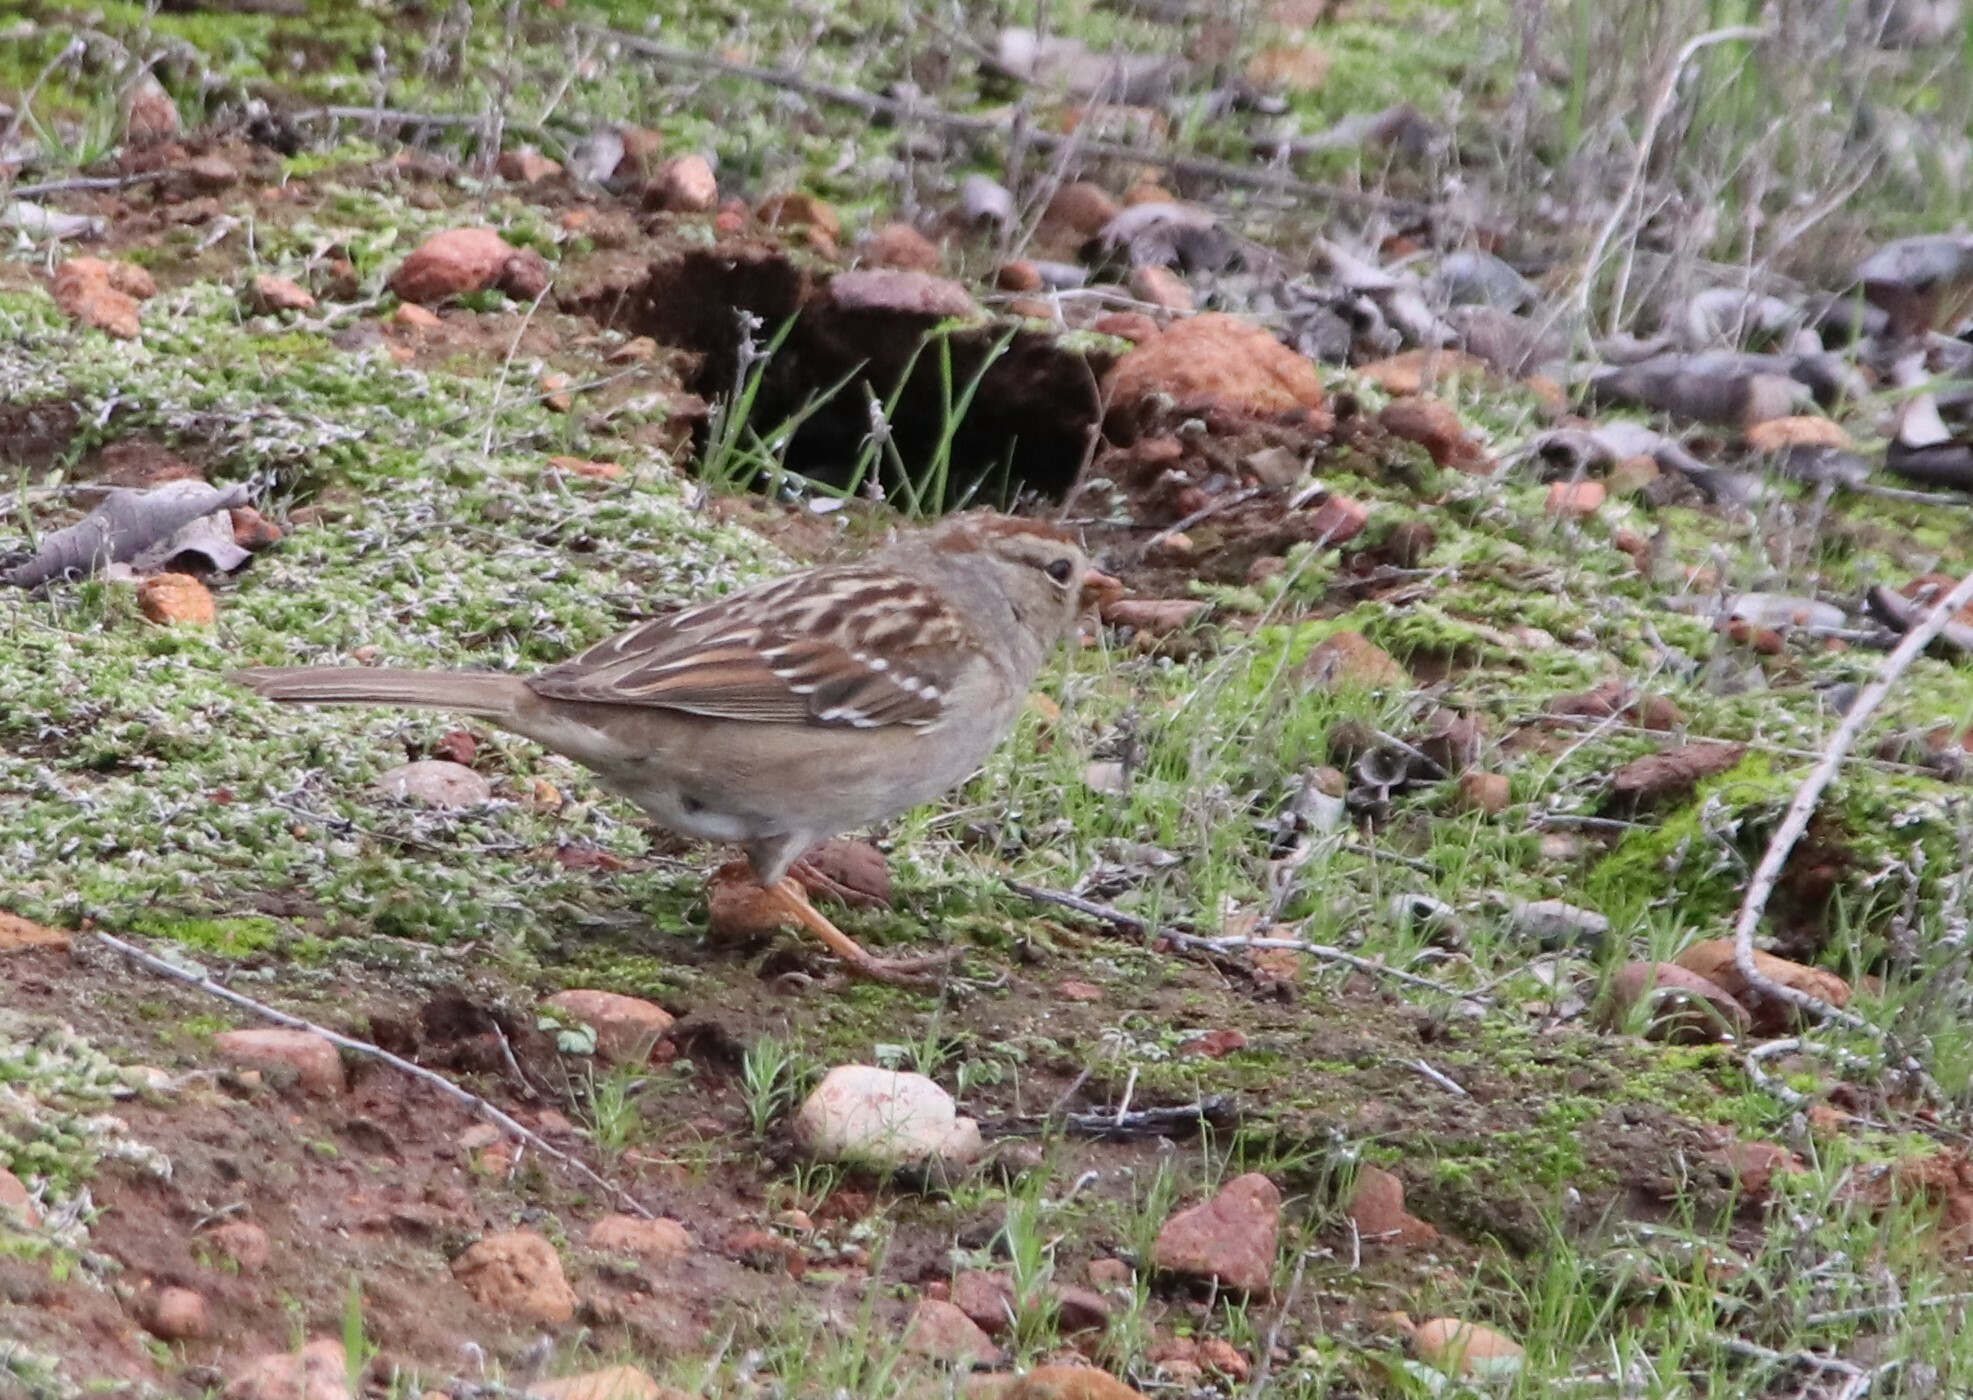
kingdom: Animalia
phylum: Chordata
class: Aves
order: Passeriformes
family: Passerellidae
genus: Zonotrichia
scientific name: Zonotrichia leucophrys
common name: White-crowned sparrow
